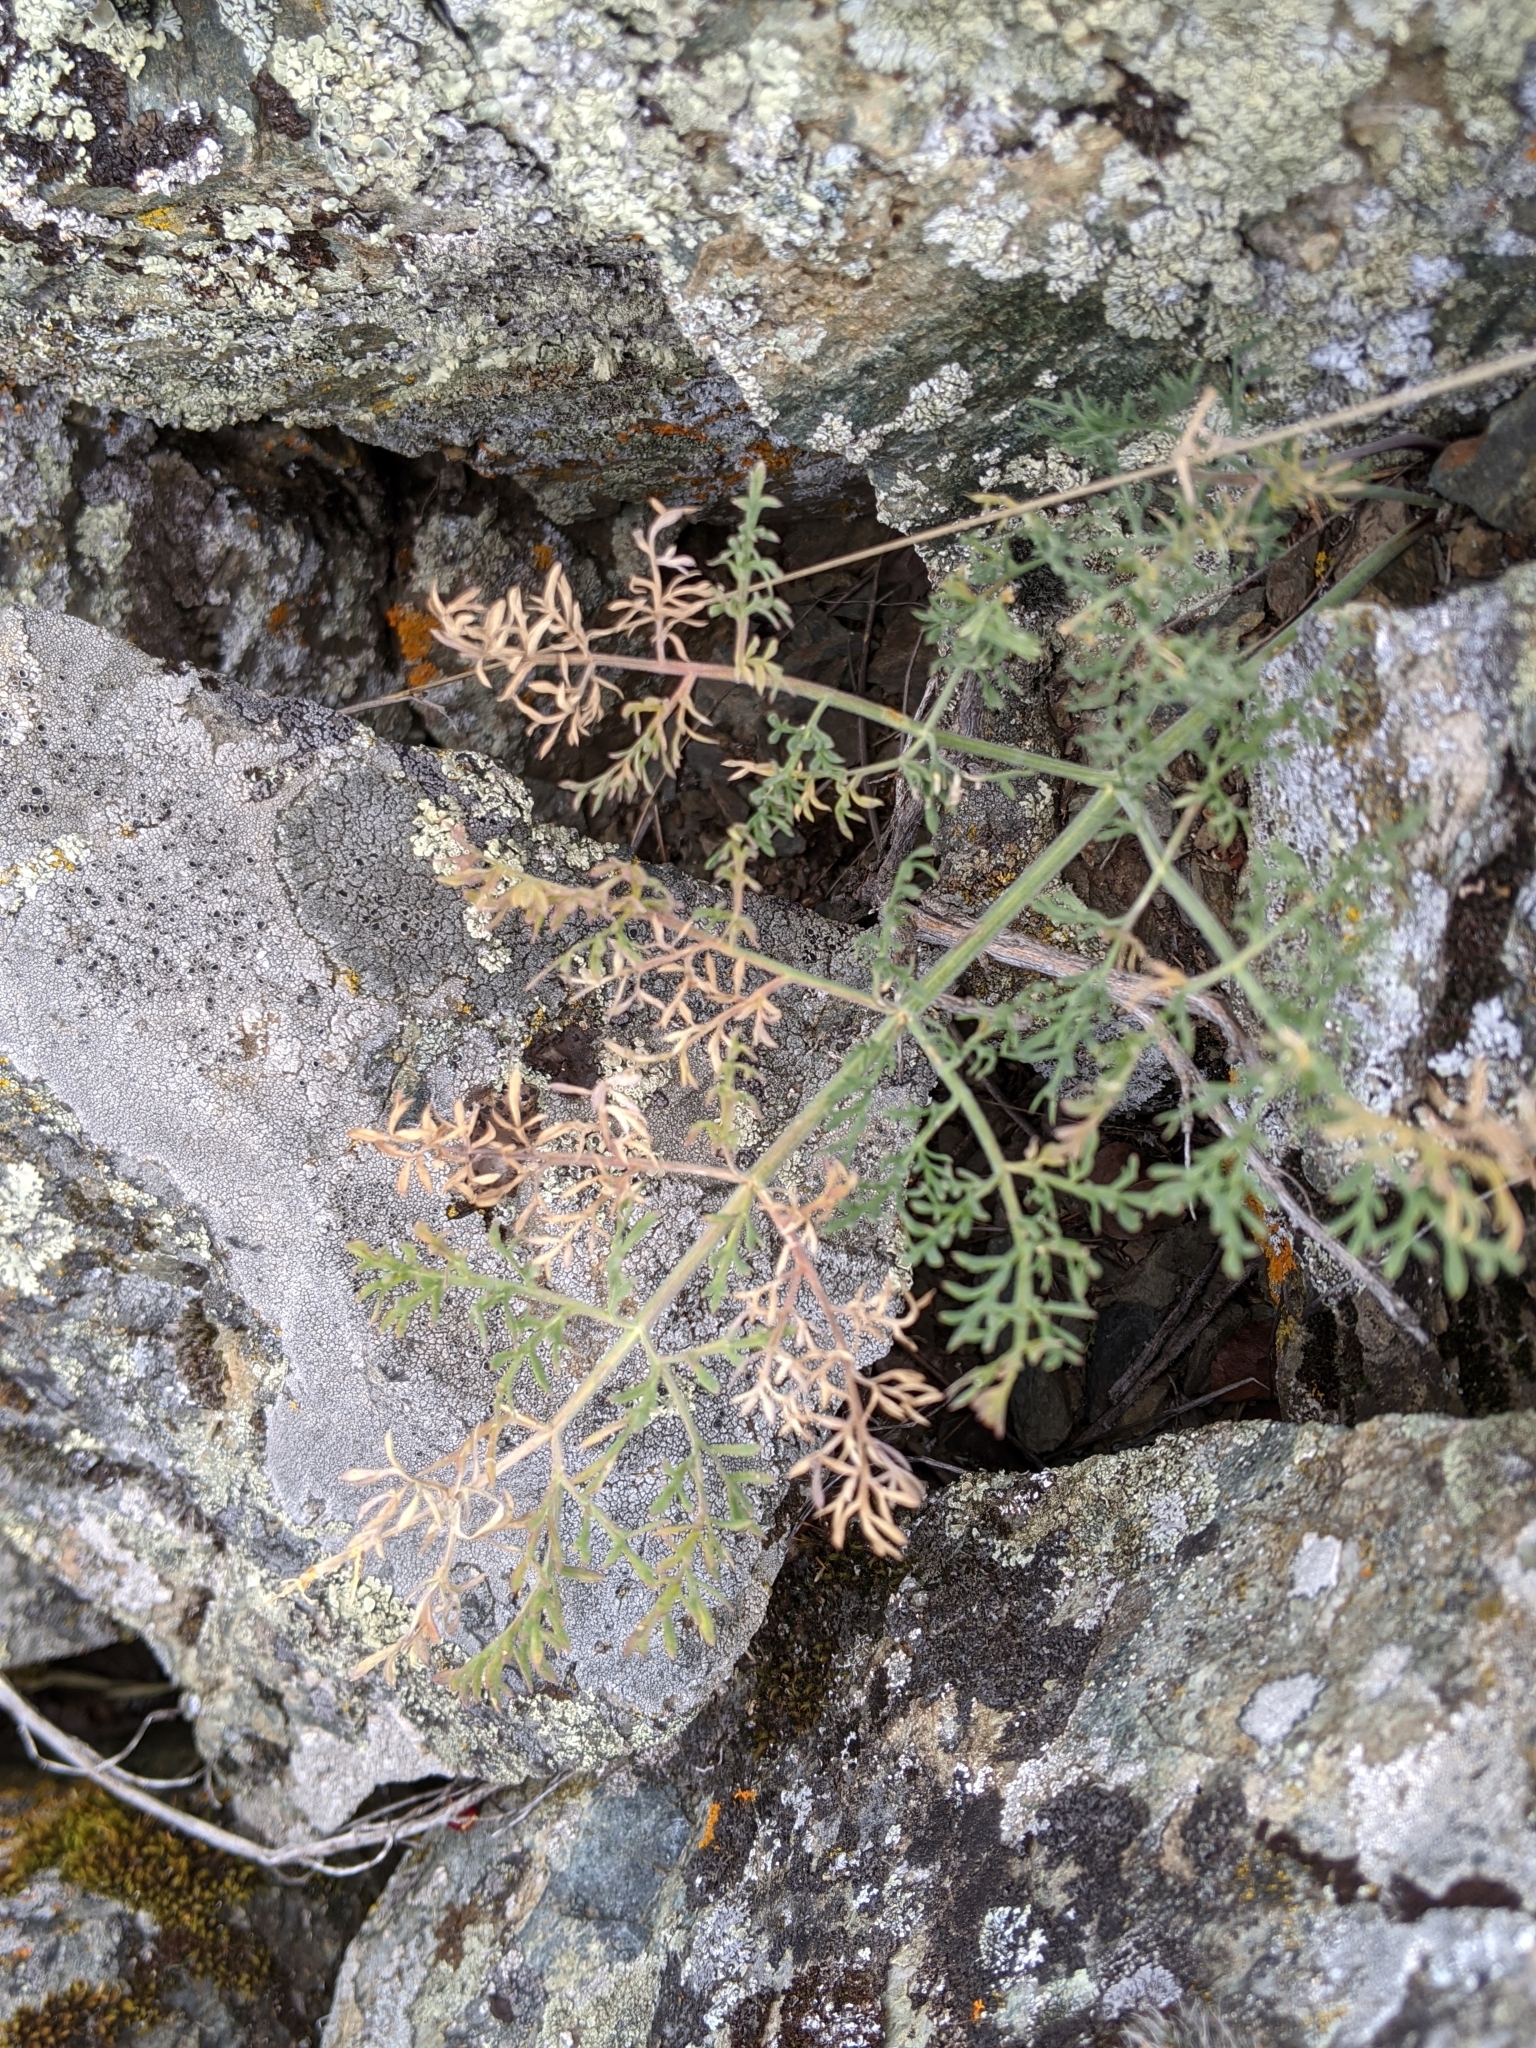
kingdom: Plantae
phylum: Tracheophyta
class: Magnoliopsida
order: Apiales
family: Apiaceae
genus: Lomatium
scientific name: Lomatium macrocarpum
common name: Big-seed biscuitroot
